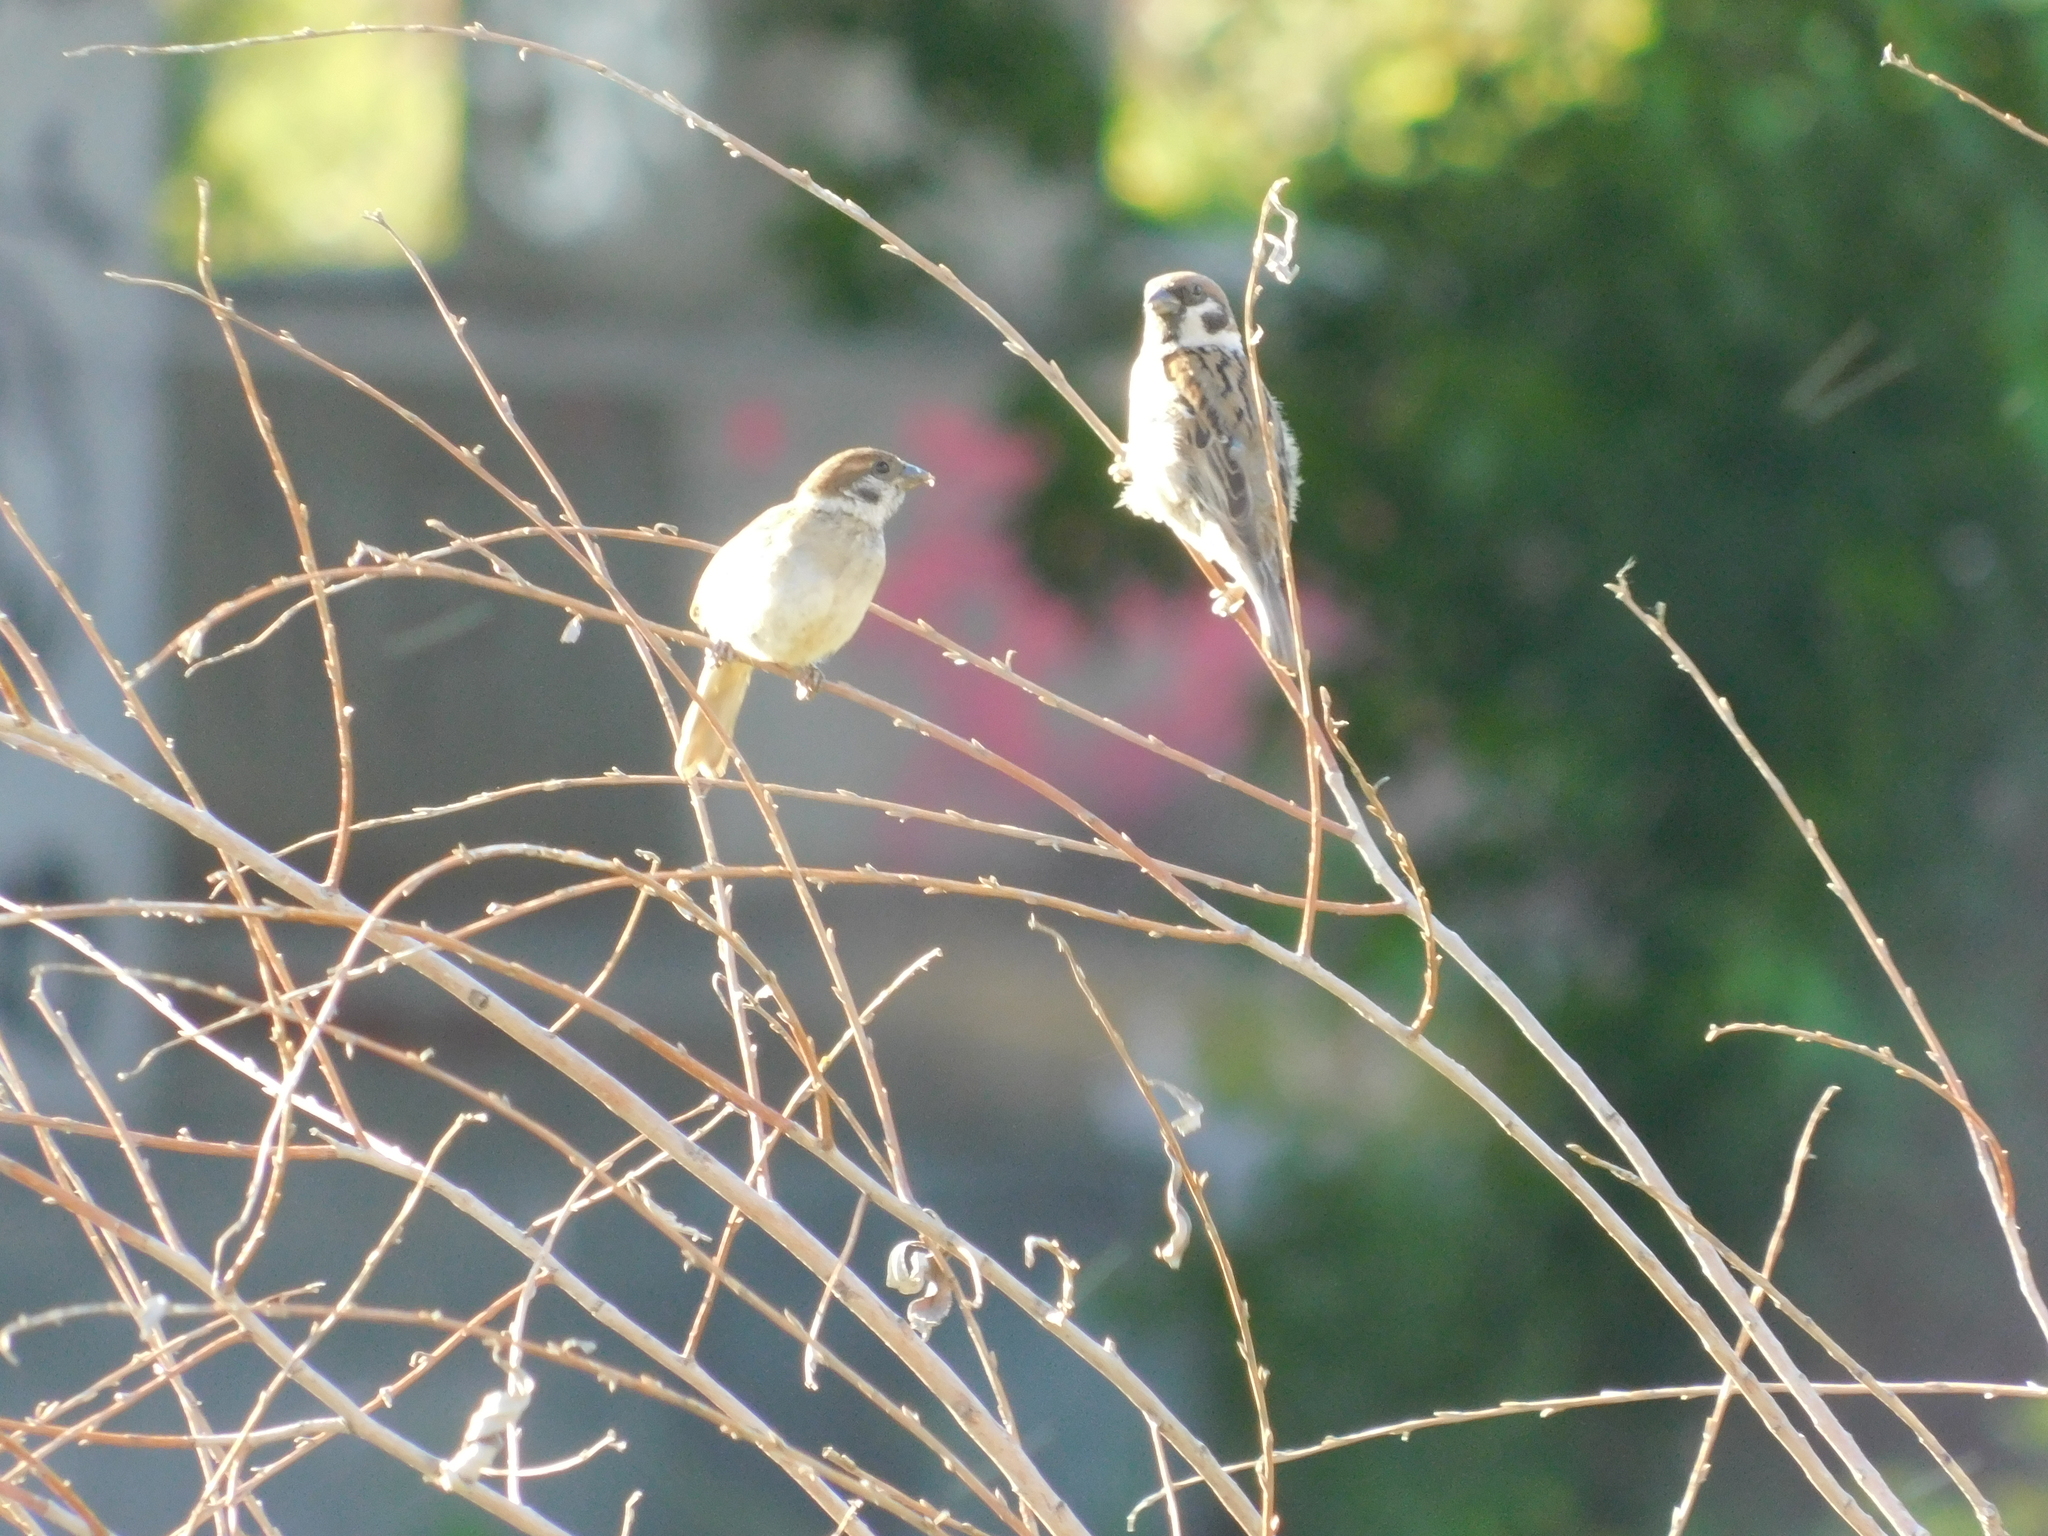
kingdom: Animalia
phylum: Chordata
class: Aves
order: Passeriformes
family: Passeridae
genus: Passer
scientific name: Passer montanus
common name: Eurasian tree sparrow
